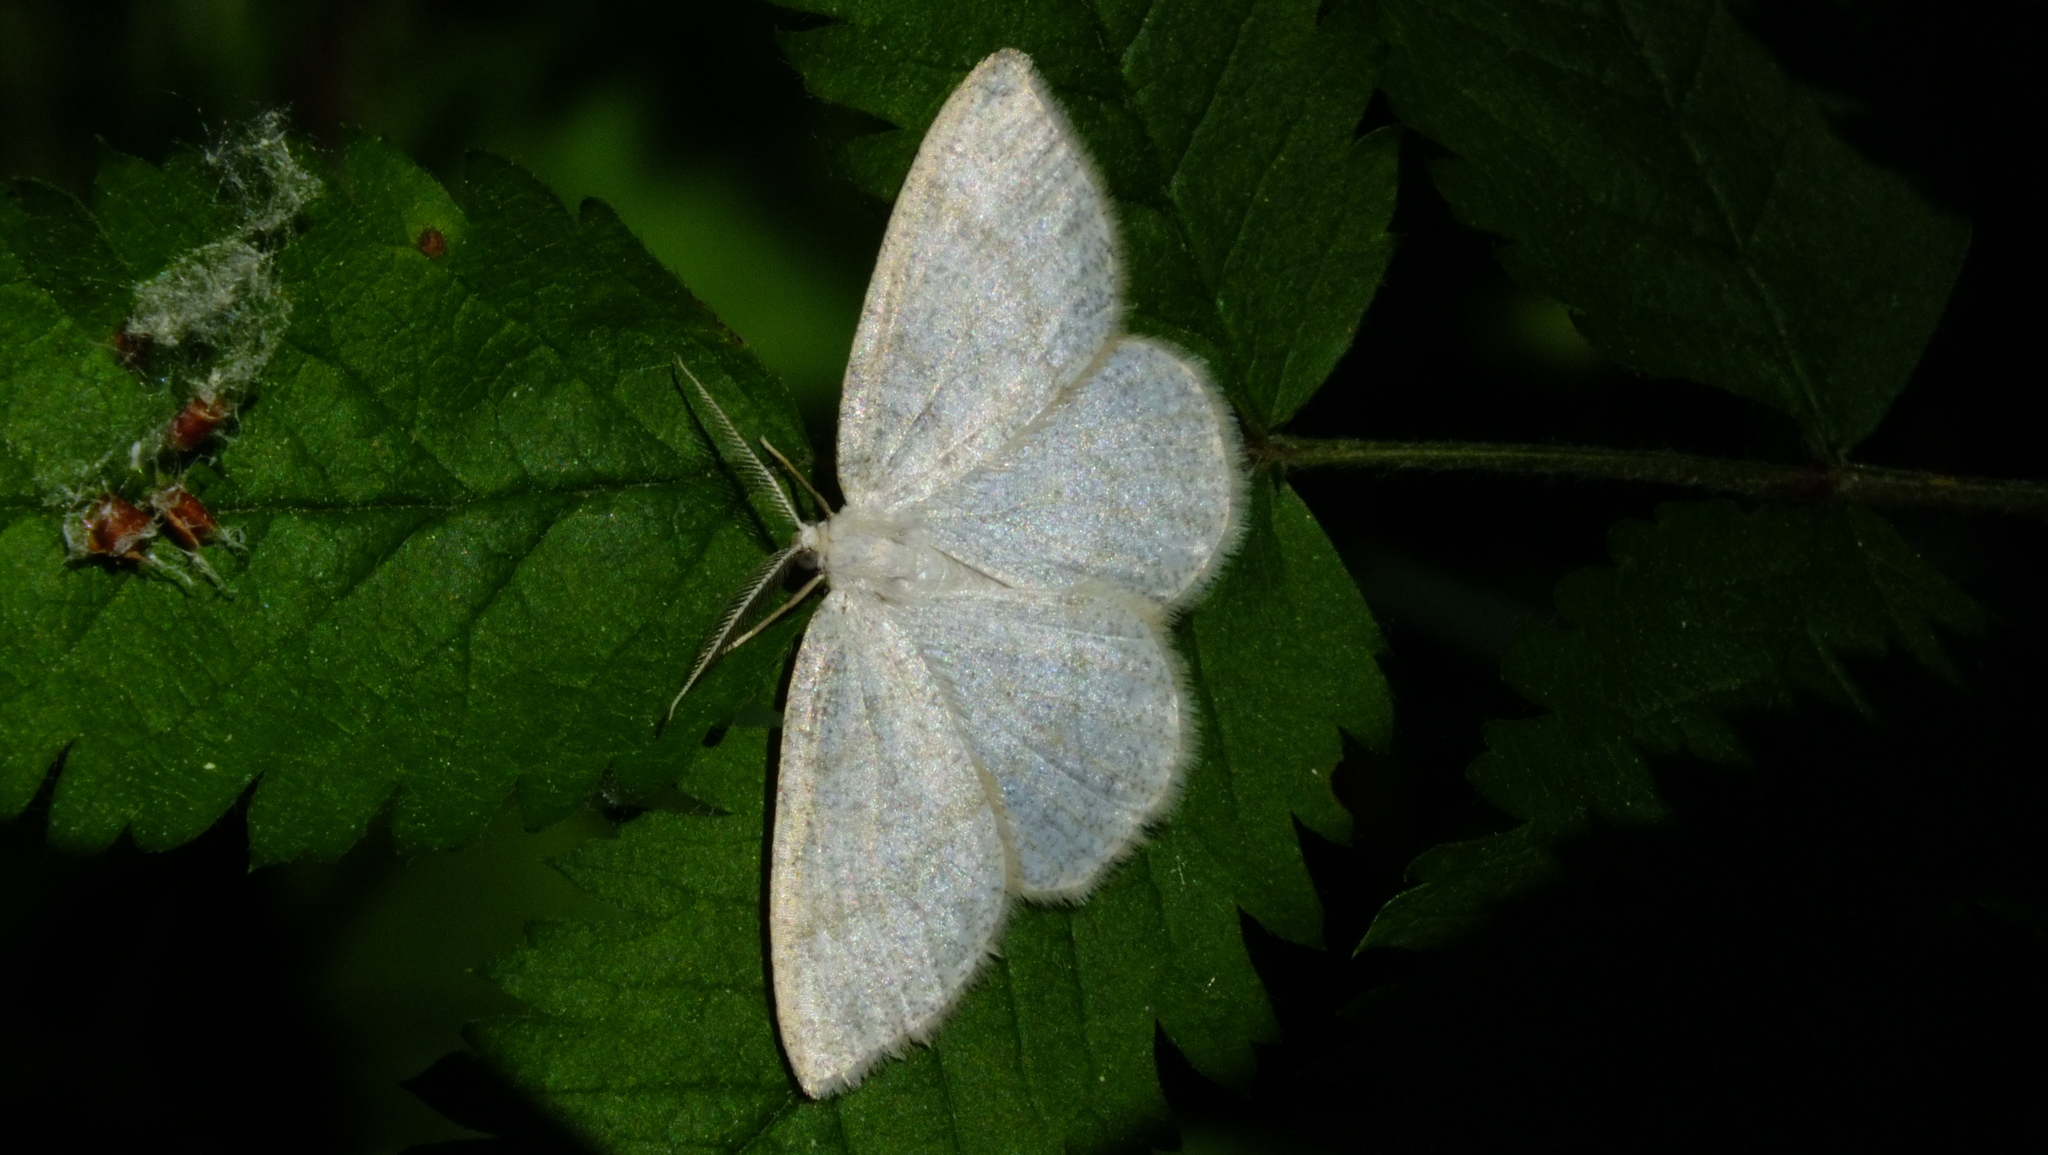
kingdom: Animalia
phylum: Arthropoda
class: Insecta
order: Lepidoptera
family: Geometridae
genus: Cabera
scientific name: Cabera exanthemata
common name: Common wave
